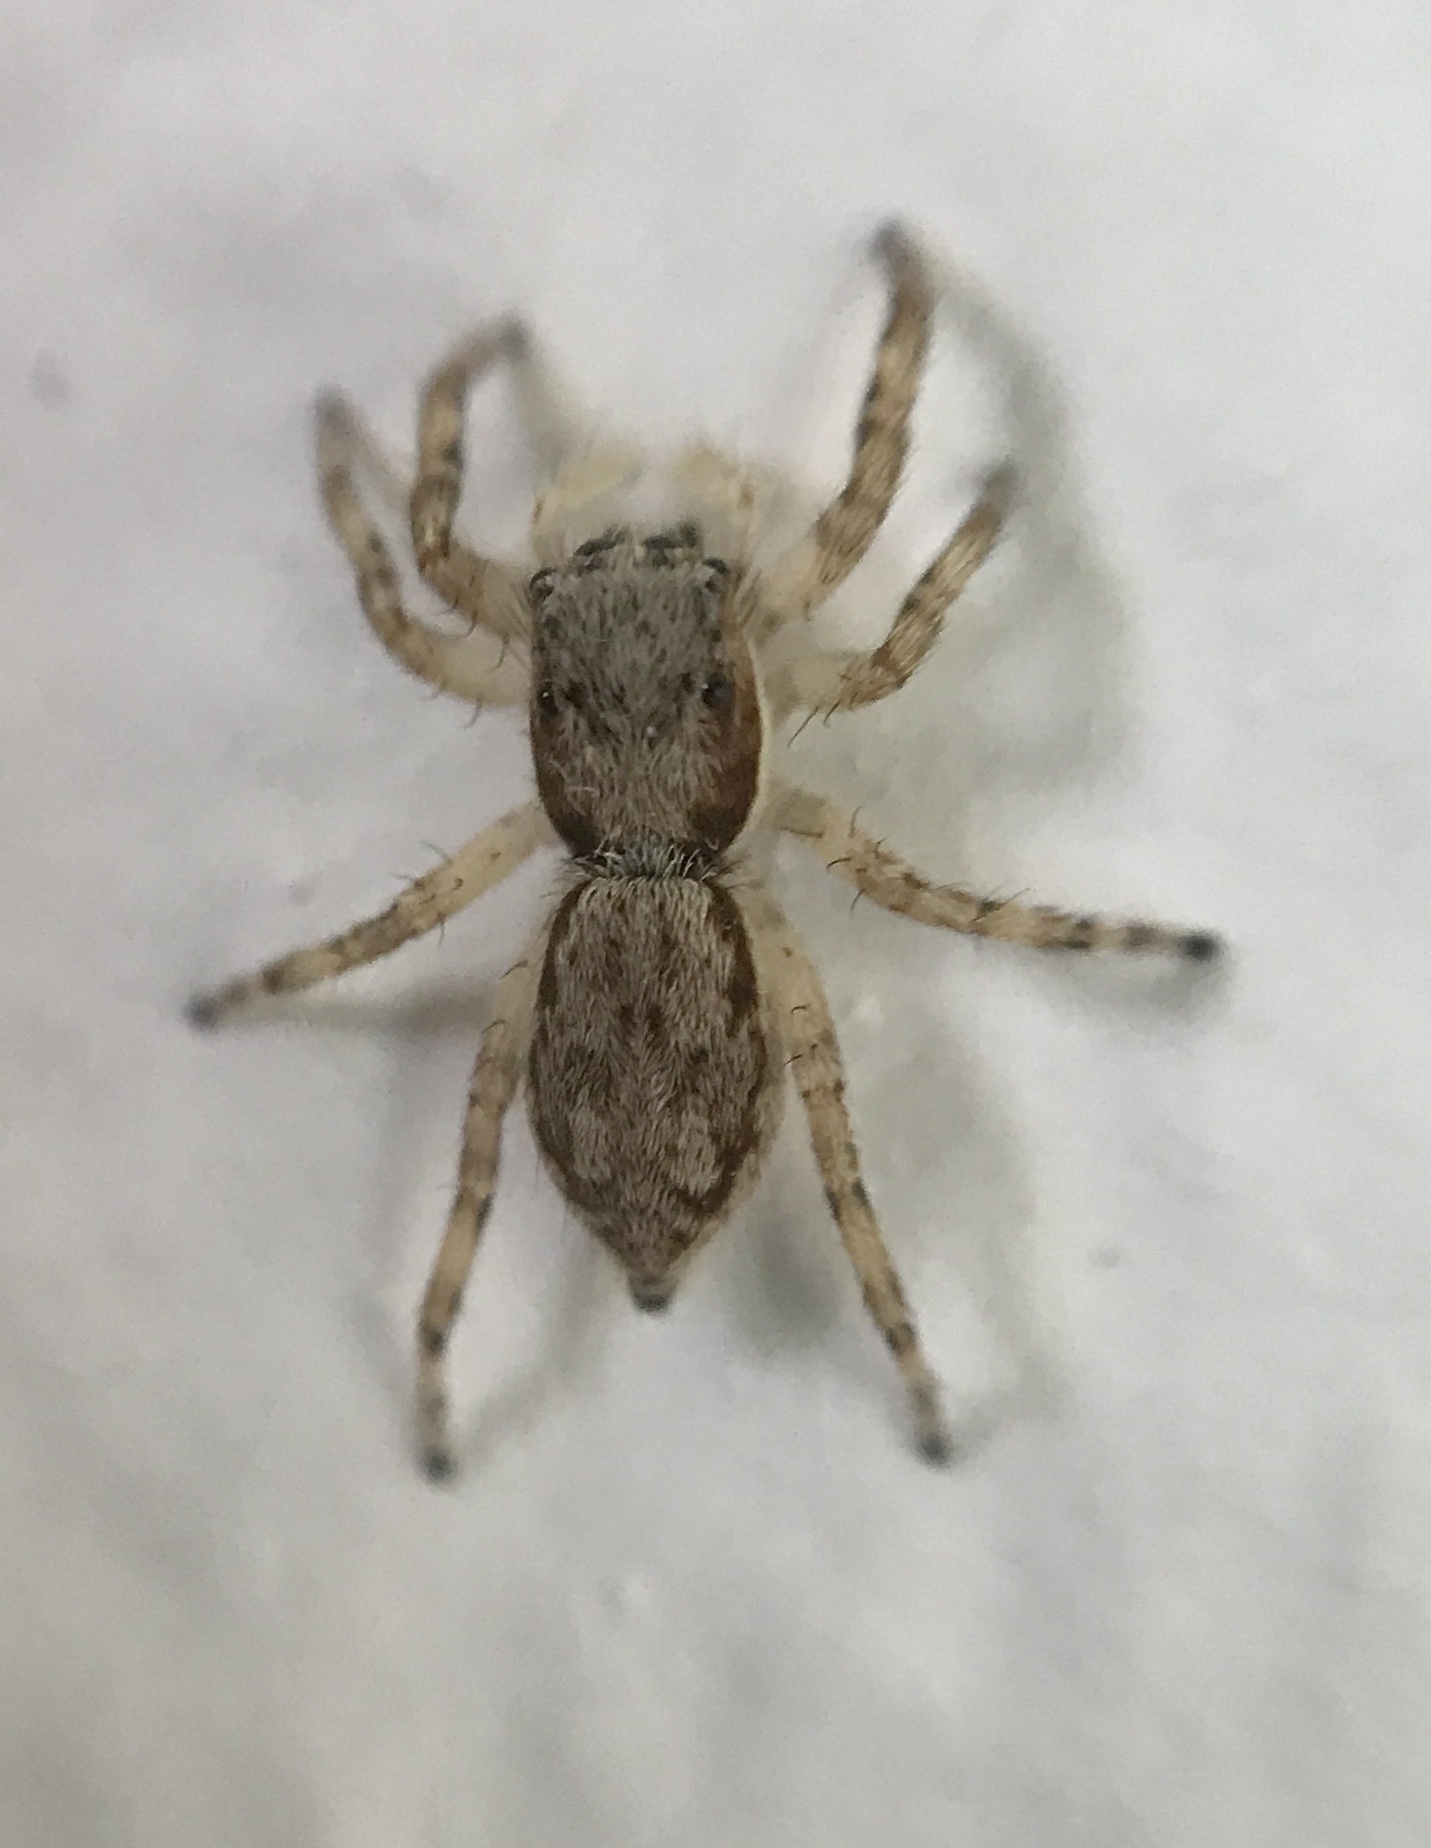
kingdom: Animalia
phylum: Arthropoda
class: Arachnida
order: Araneae
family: Salticidae
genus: Menemerus
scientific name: Menemerus bivittatus
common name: Gray wall jumper
